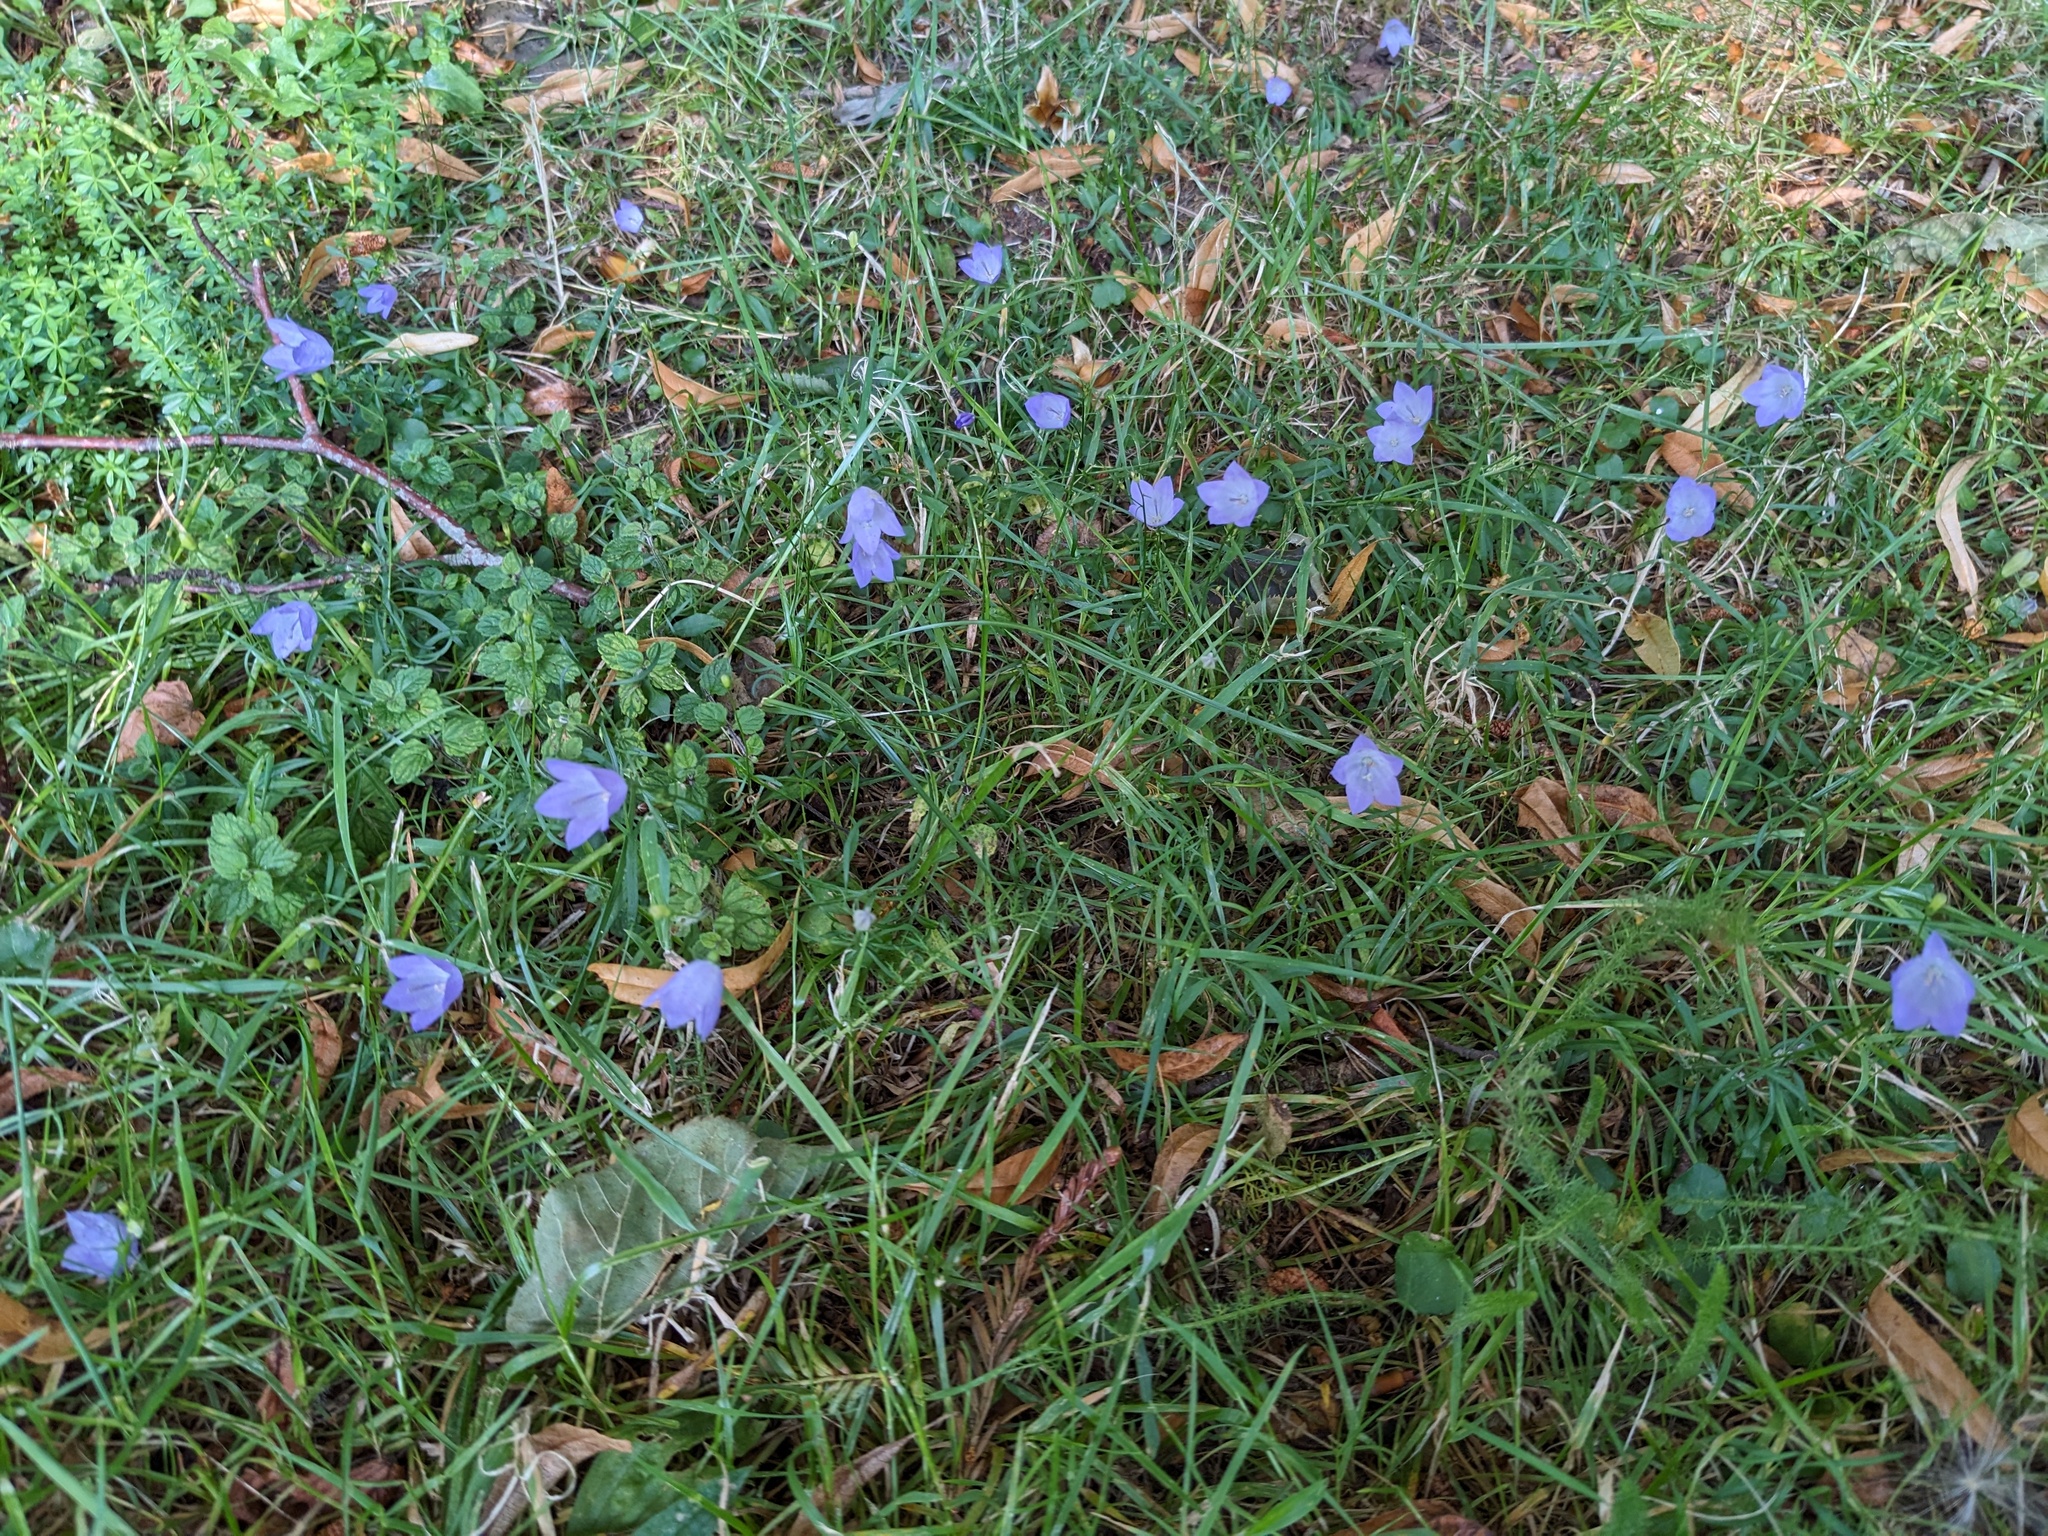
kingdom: Plantae
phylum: Tracheophyta
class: Magnoliopsida
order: Asterales
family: Campanulaceae
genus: Campanula
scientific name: Campanula rotundifolia
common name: Harebell
